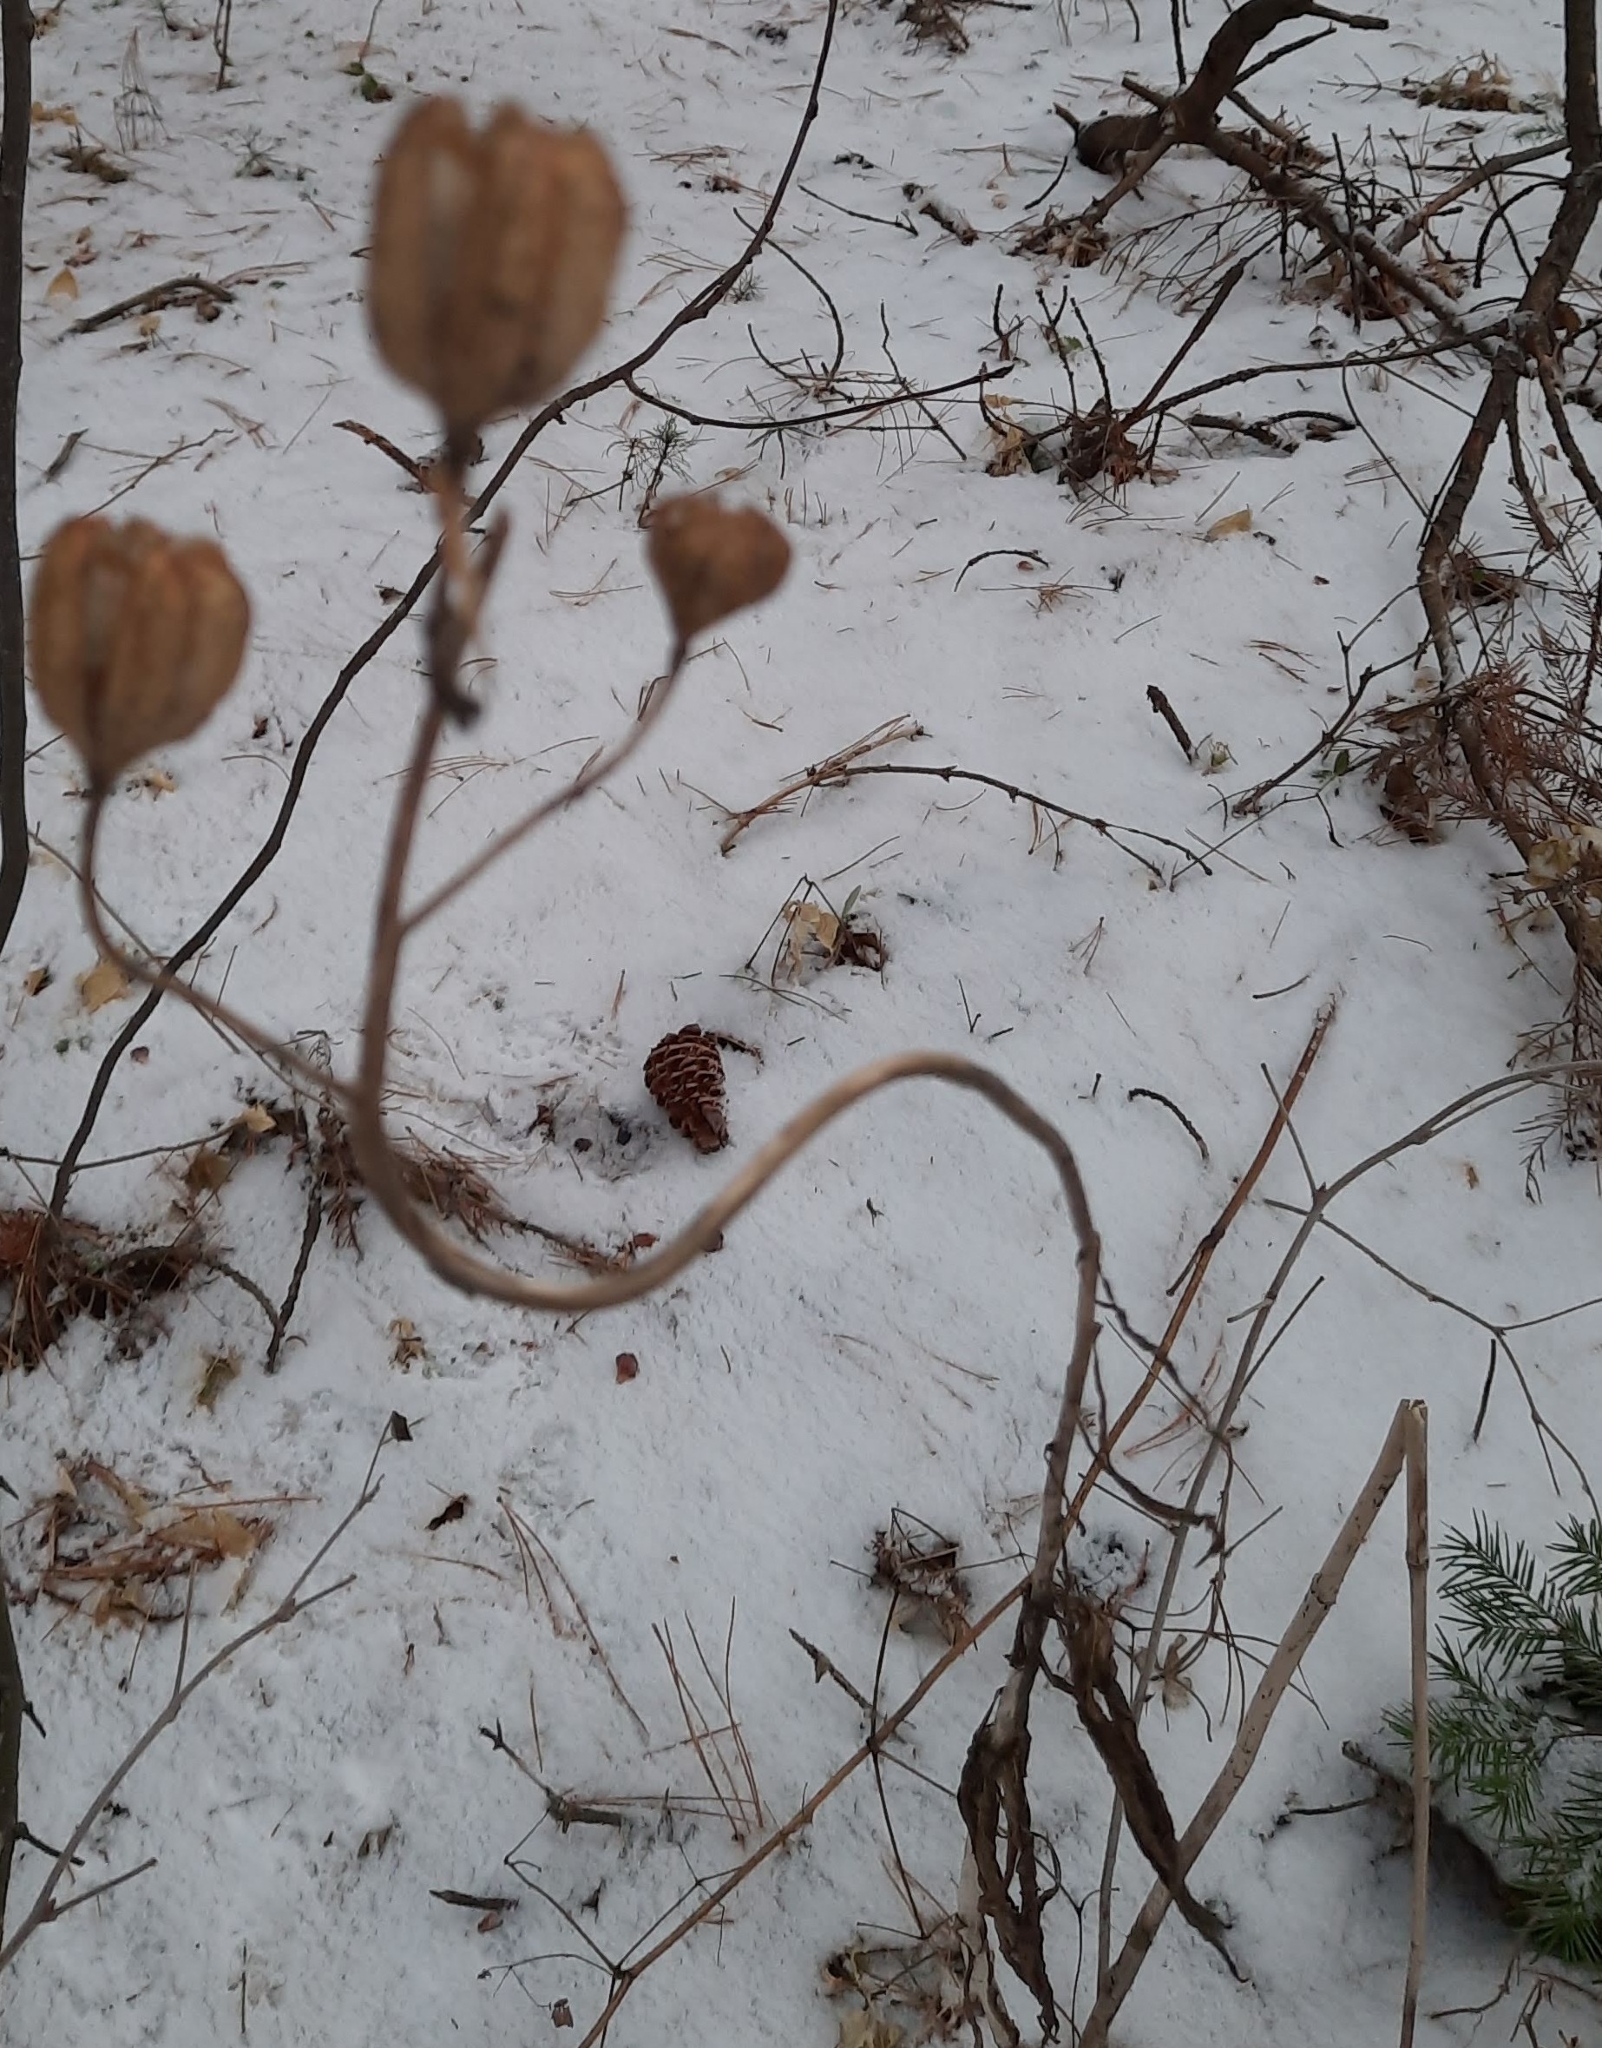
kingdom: Plantae
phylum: Tracheophyta
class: Liliopsida
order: Liliales
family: Liliaceae
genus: Lilium
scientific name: Lilium martagon
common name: Martagon lily
